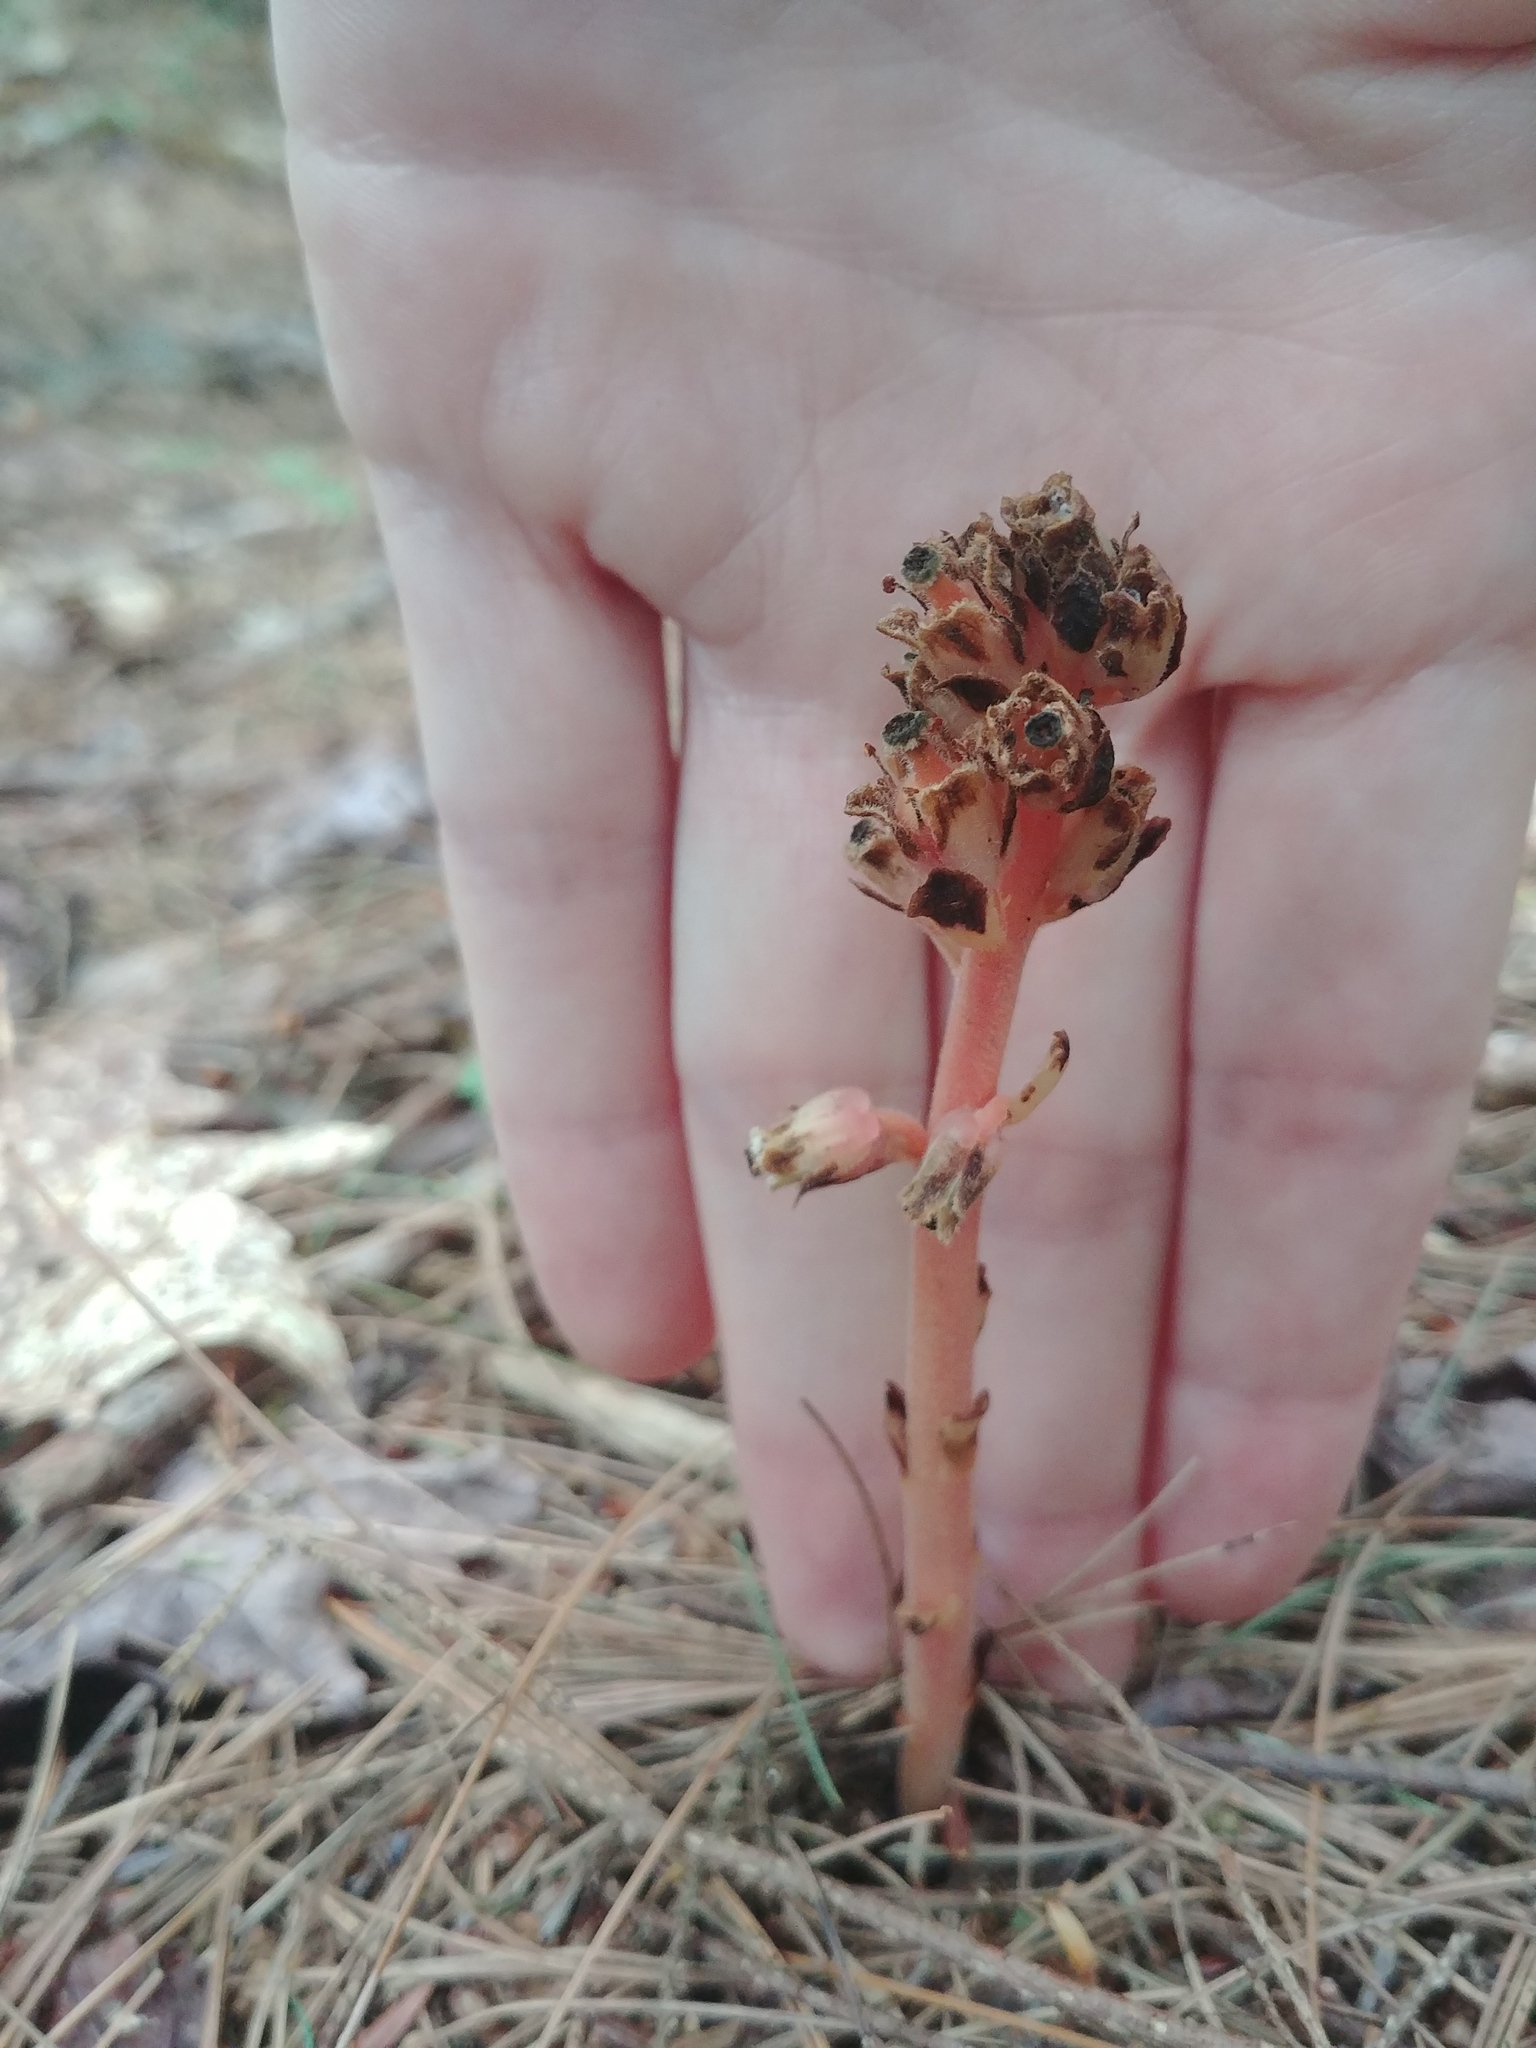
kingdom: Plantae
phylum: Tracheophyta
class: Magnoliopsida
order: Ericales
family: Ericaceae
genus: Hypopitys
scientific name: Hypopitys monotropa
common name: Yellow bird's-nest
